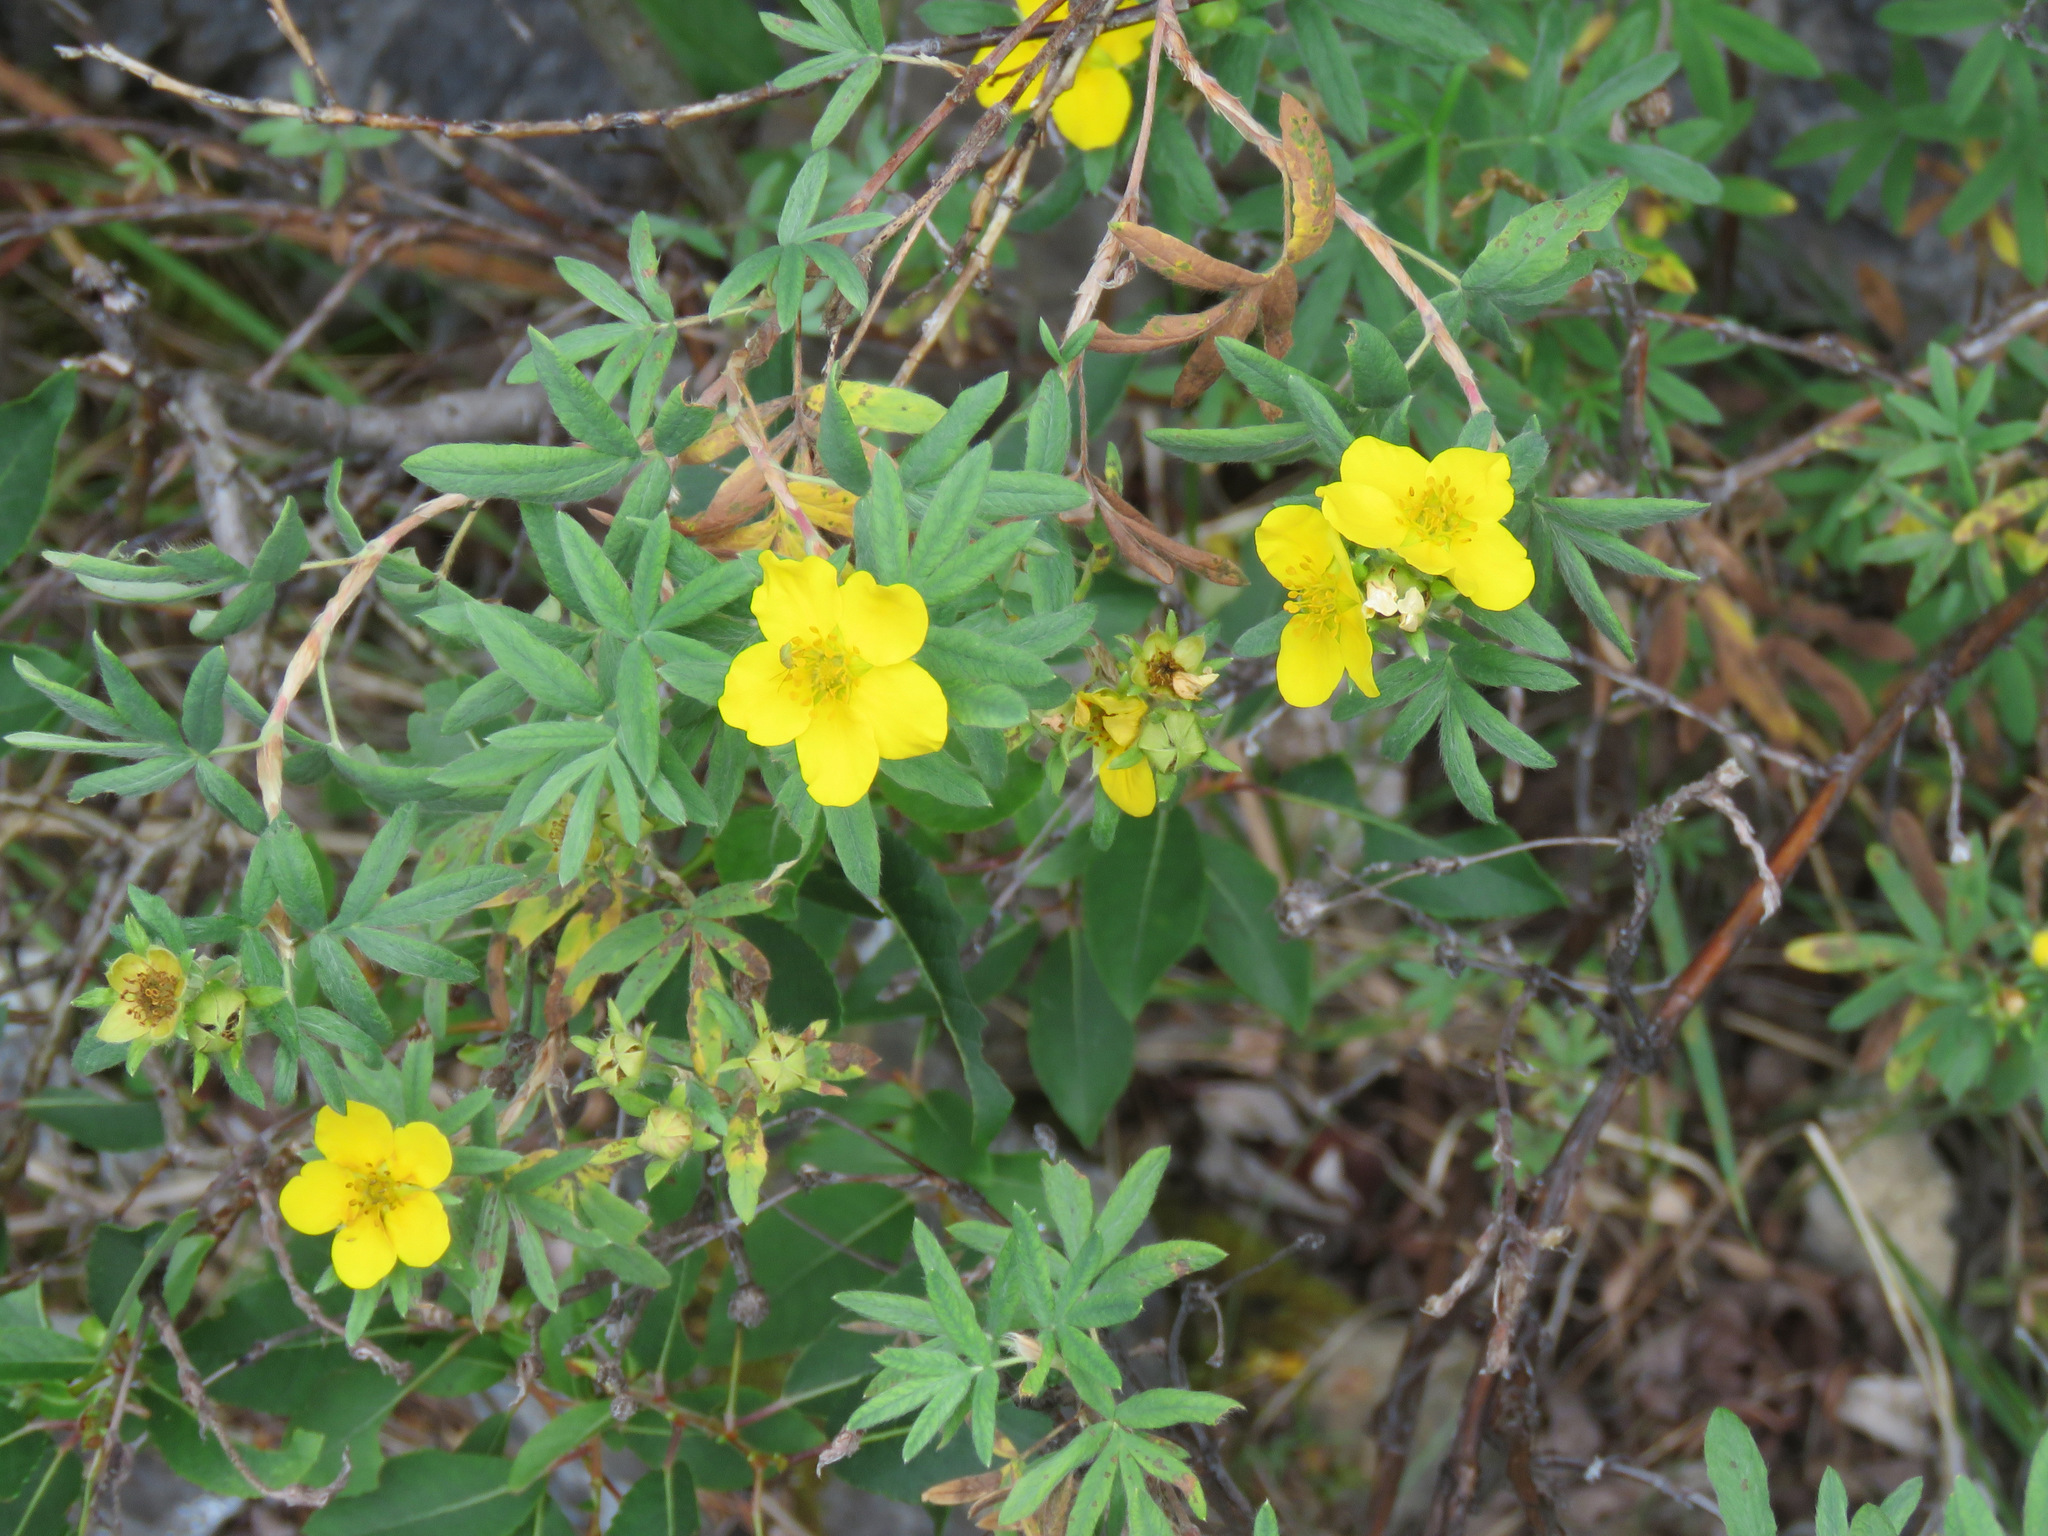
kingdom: Plantae
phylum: Tracheophyta
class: Magnoliopsida
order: Rosales
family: Rosaceae
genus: Dasiphora
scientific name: Dasiphora fruticosa
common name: Shrubby cinquefoil
